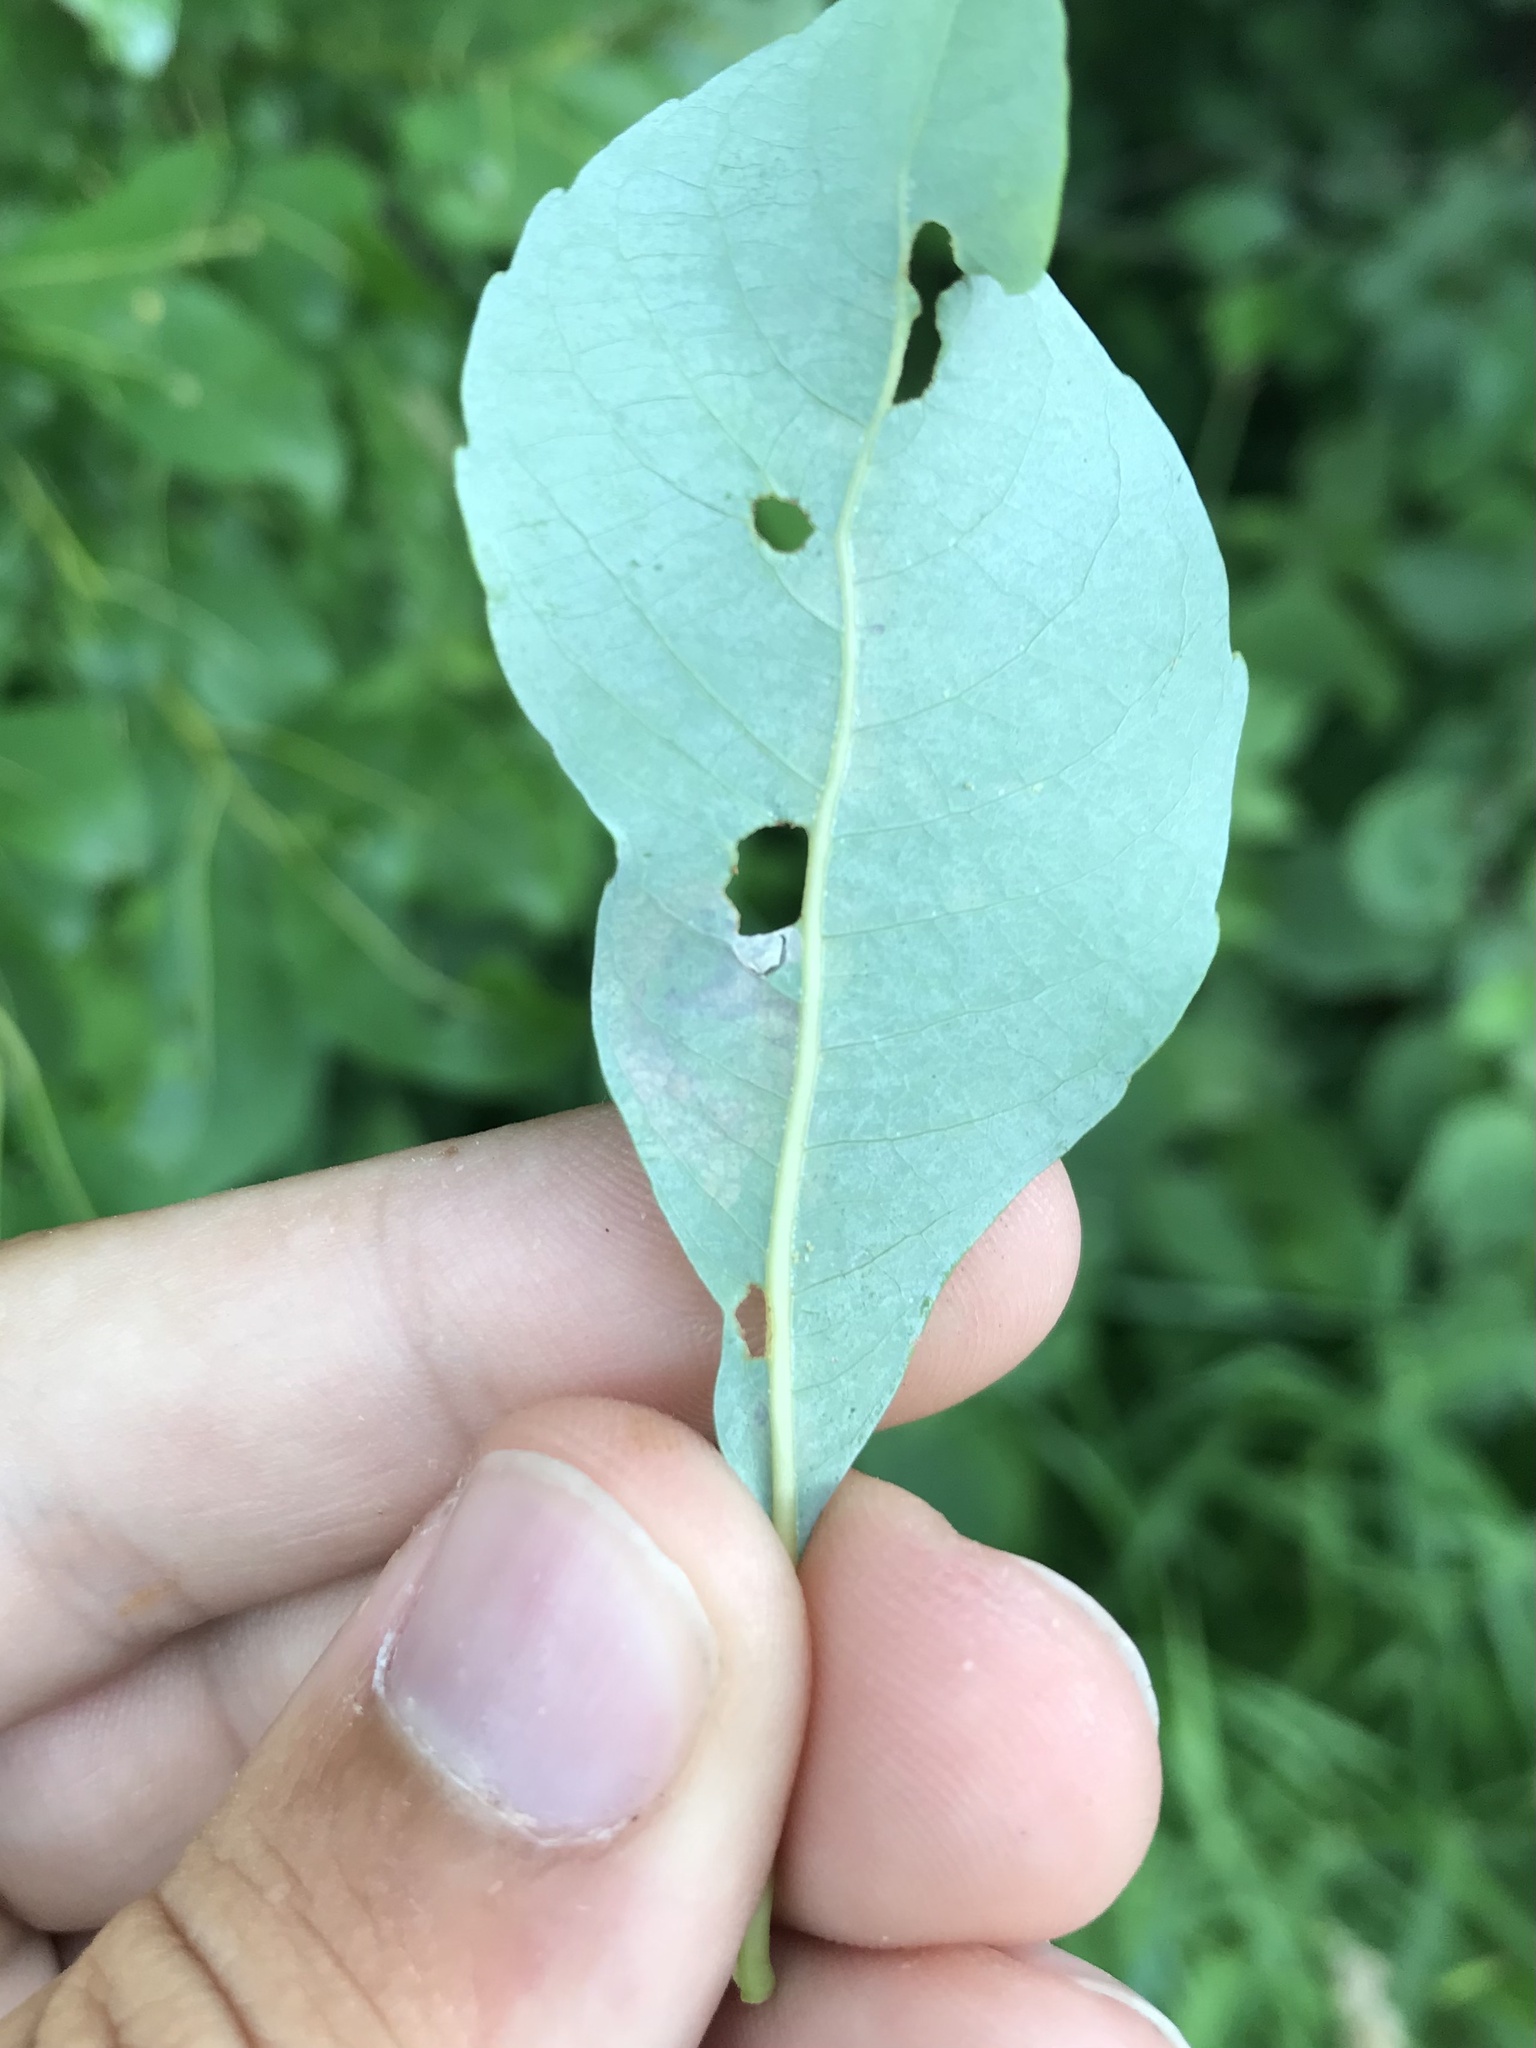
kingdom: Animalia
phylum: Arthropoda
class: Insecta
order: Lepidoptera
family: Gracillariidae
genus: Micrurapteryx
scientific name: Micrurapteryx salicifoliella
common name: Willow leaf blotch miner moth
